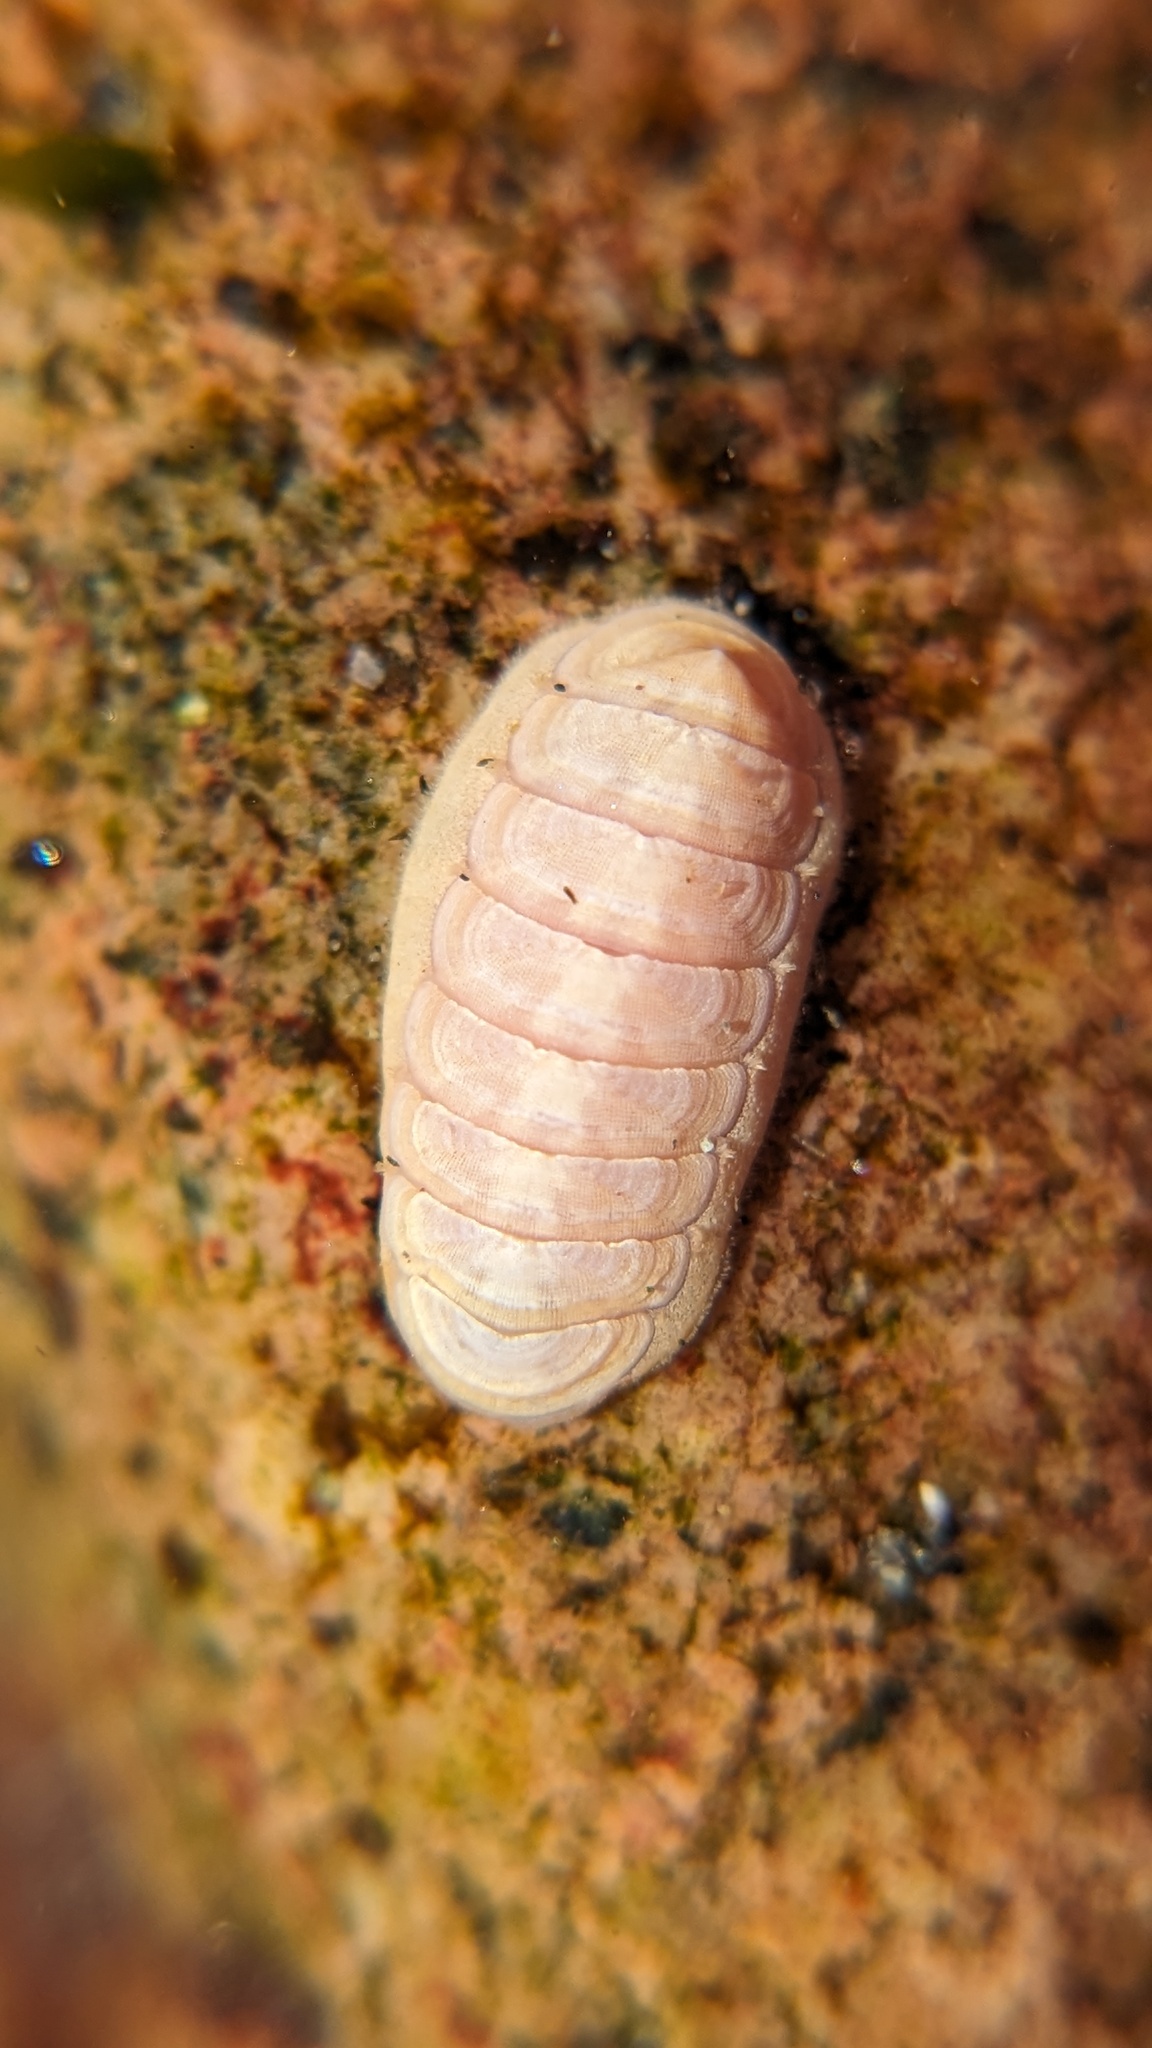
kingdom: Animalia
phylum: Mollusca
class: Polyplacophora
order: Lepidopleurida
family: Leptochitonidae
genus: Leptochiton
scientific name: Leptochiton rugatus
